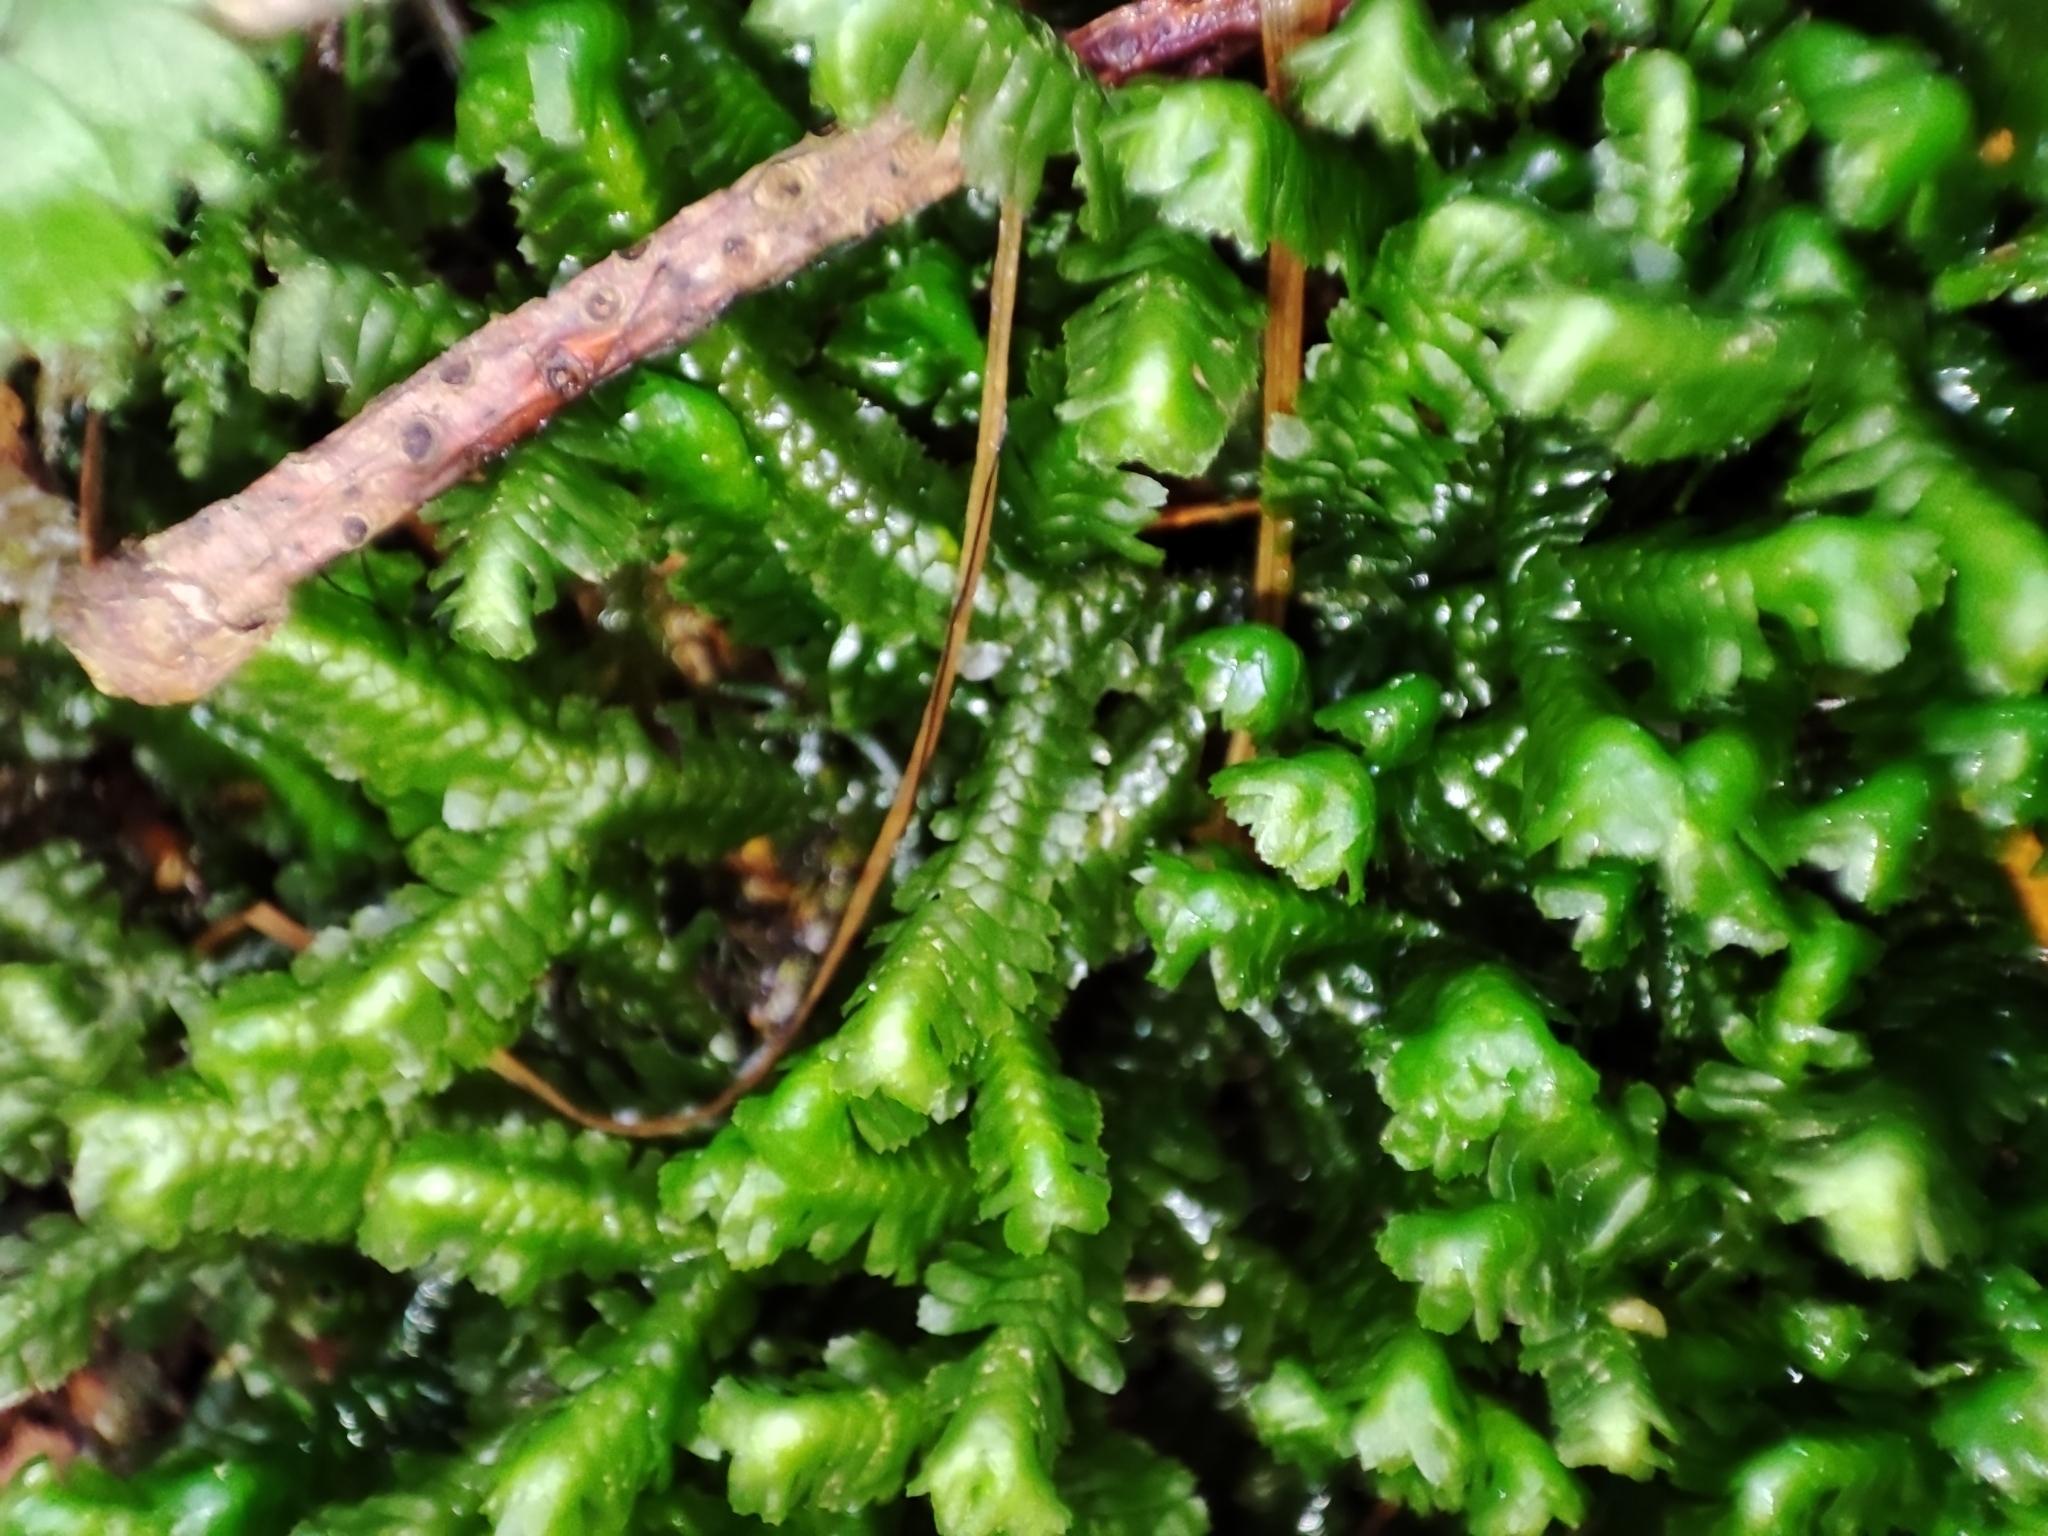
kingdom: Plantae
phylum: Marchantiophyta
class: Jungermanniopsida
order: Jungermanniales
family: Lepidoziaceae
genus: Bazzania
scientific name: Bazzania trilobata
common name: Three-lobed whipwort
